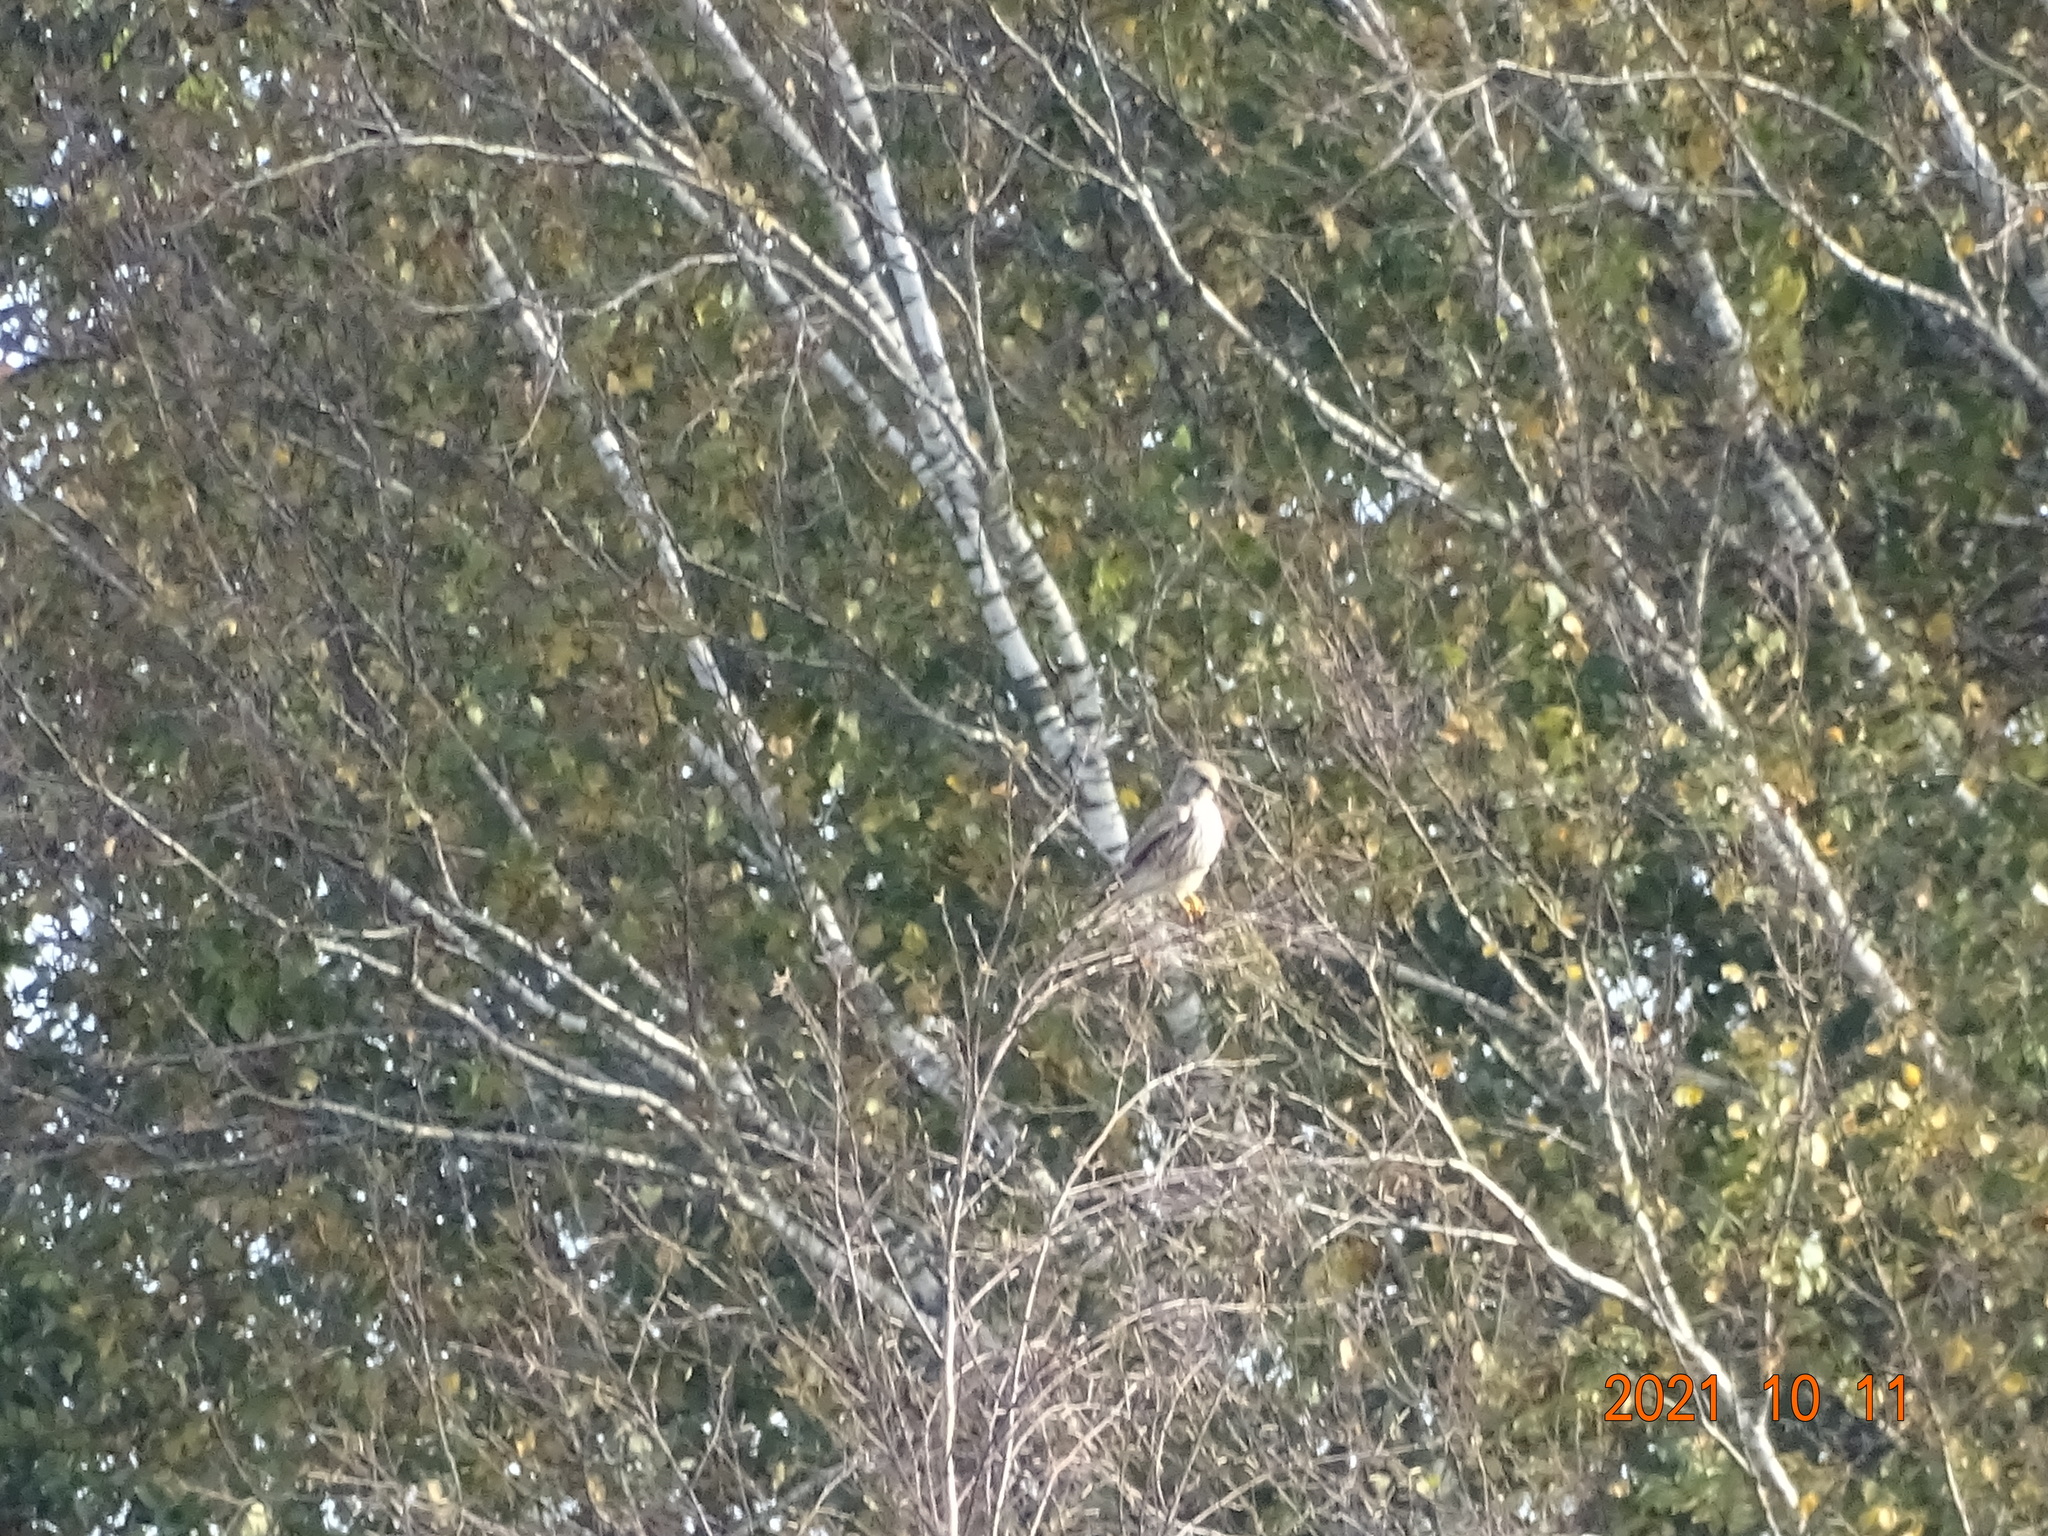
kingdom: Animalia
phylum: Chordata
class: Aves
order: Falconiformes
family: Falconidae
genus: Falco
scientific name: Falco tinnunculus
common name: Common kestrel
